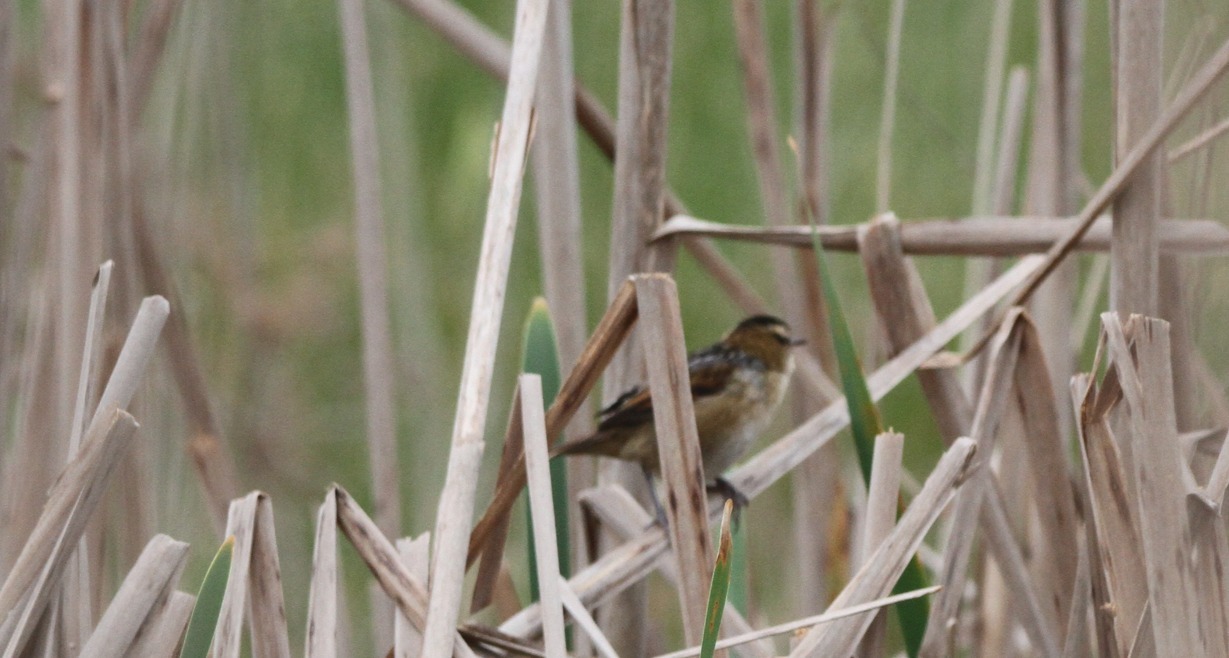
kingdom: Animalia
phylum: Chordata
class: Aves
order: Passeriformes
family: Furnariidae
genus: Phleocryptes
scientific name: Phleocryptes melanops
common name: Wren-like rushbird
